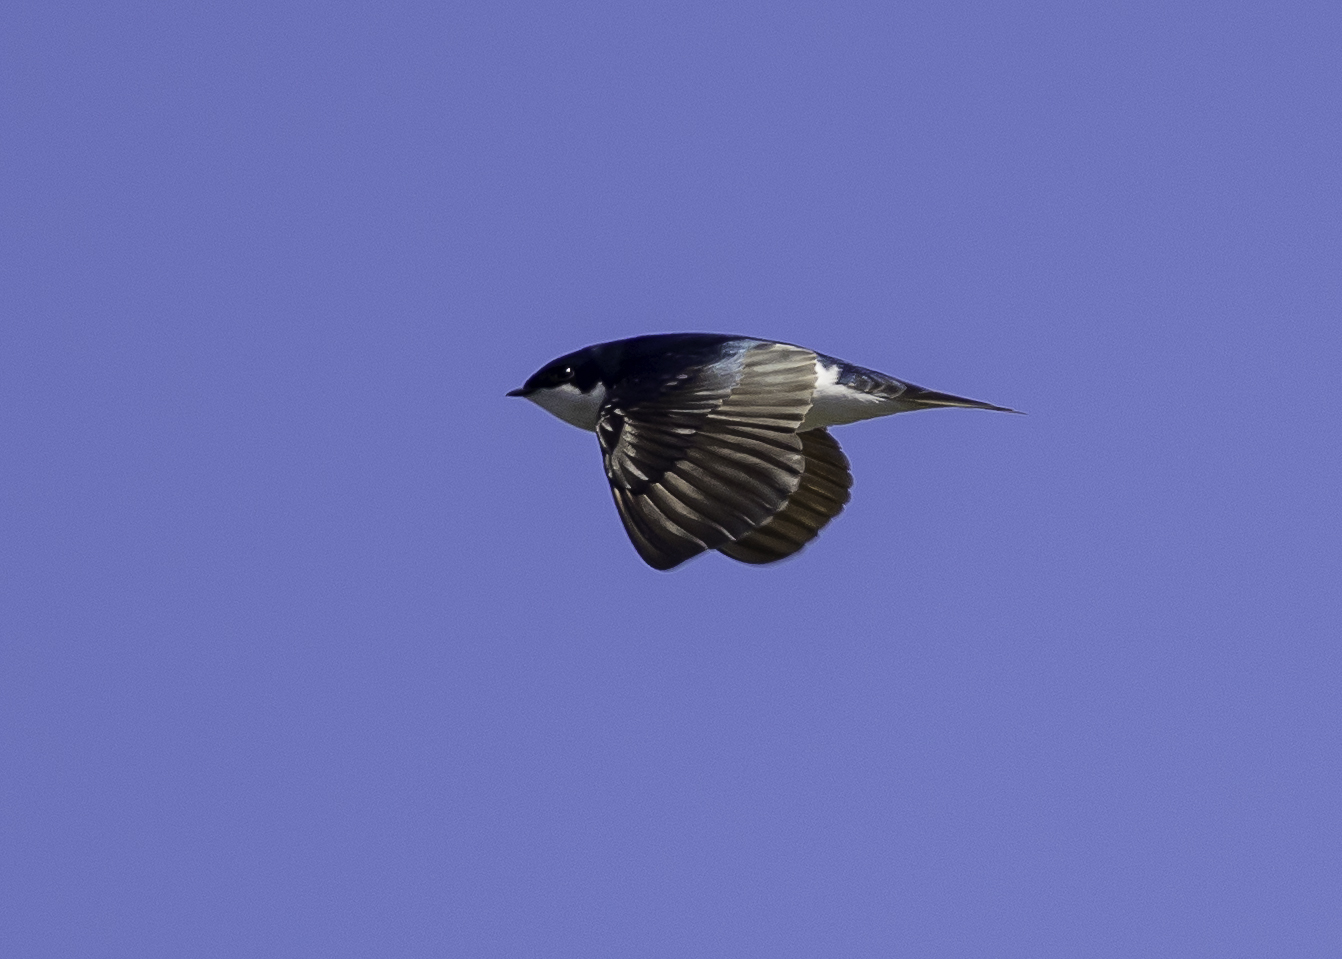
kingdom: Animalia
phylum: Chordata
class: Aves
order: Passeriformes
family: Hirundinidae
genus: Tachycineta
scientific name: Tachycineta bicolor
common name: Tree swallow
